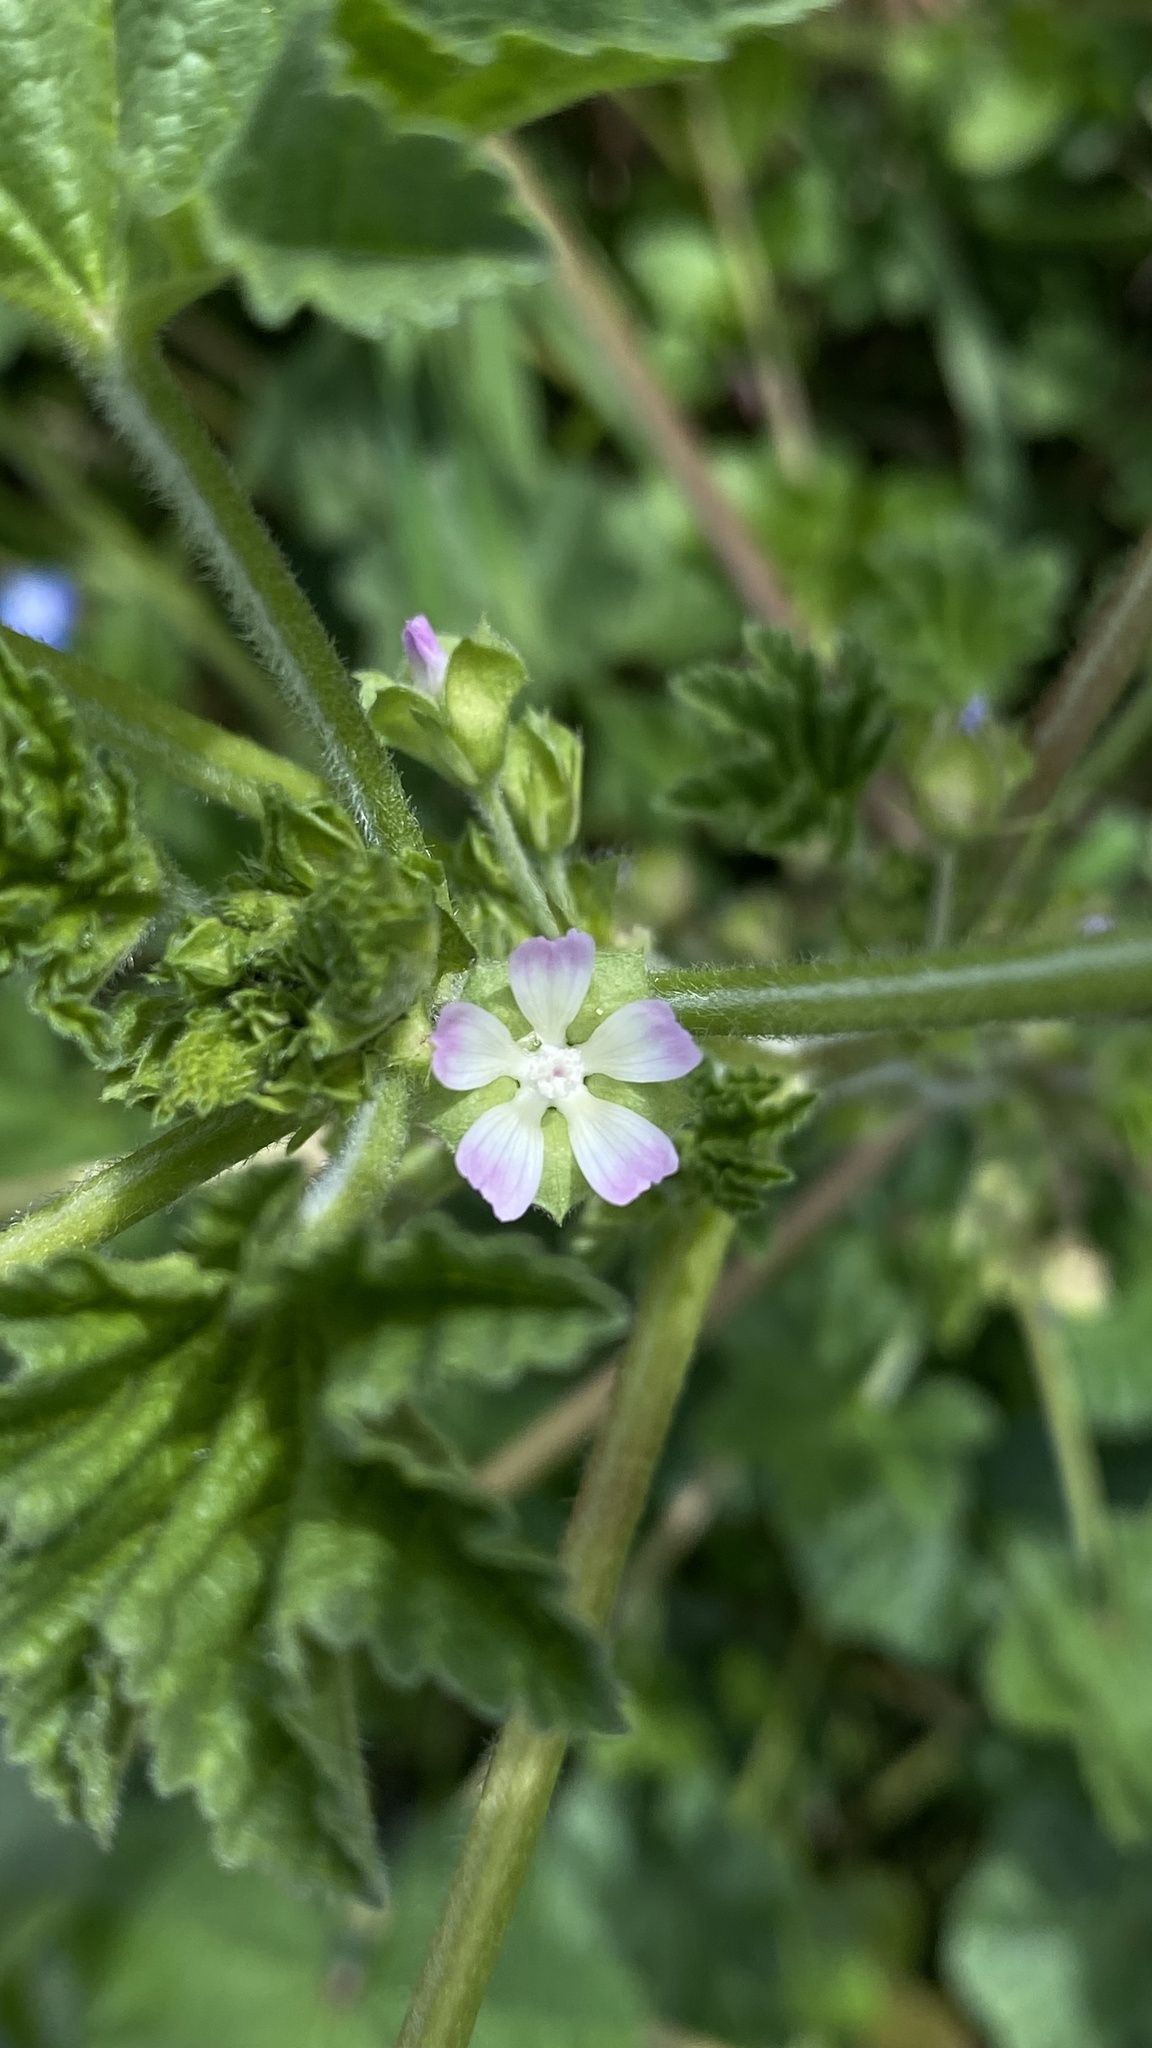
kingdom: Plantae
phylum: Tracheophyta
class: Magnoliopsida
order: Malvales
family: Malvaceae
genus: Malva
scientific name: Malva parviflora
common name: Least mallow
